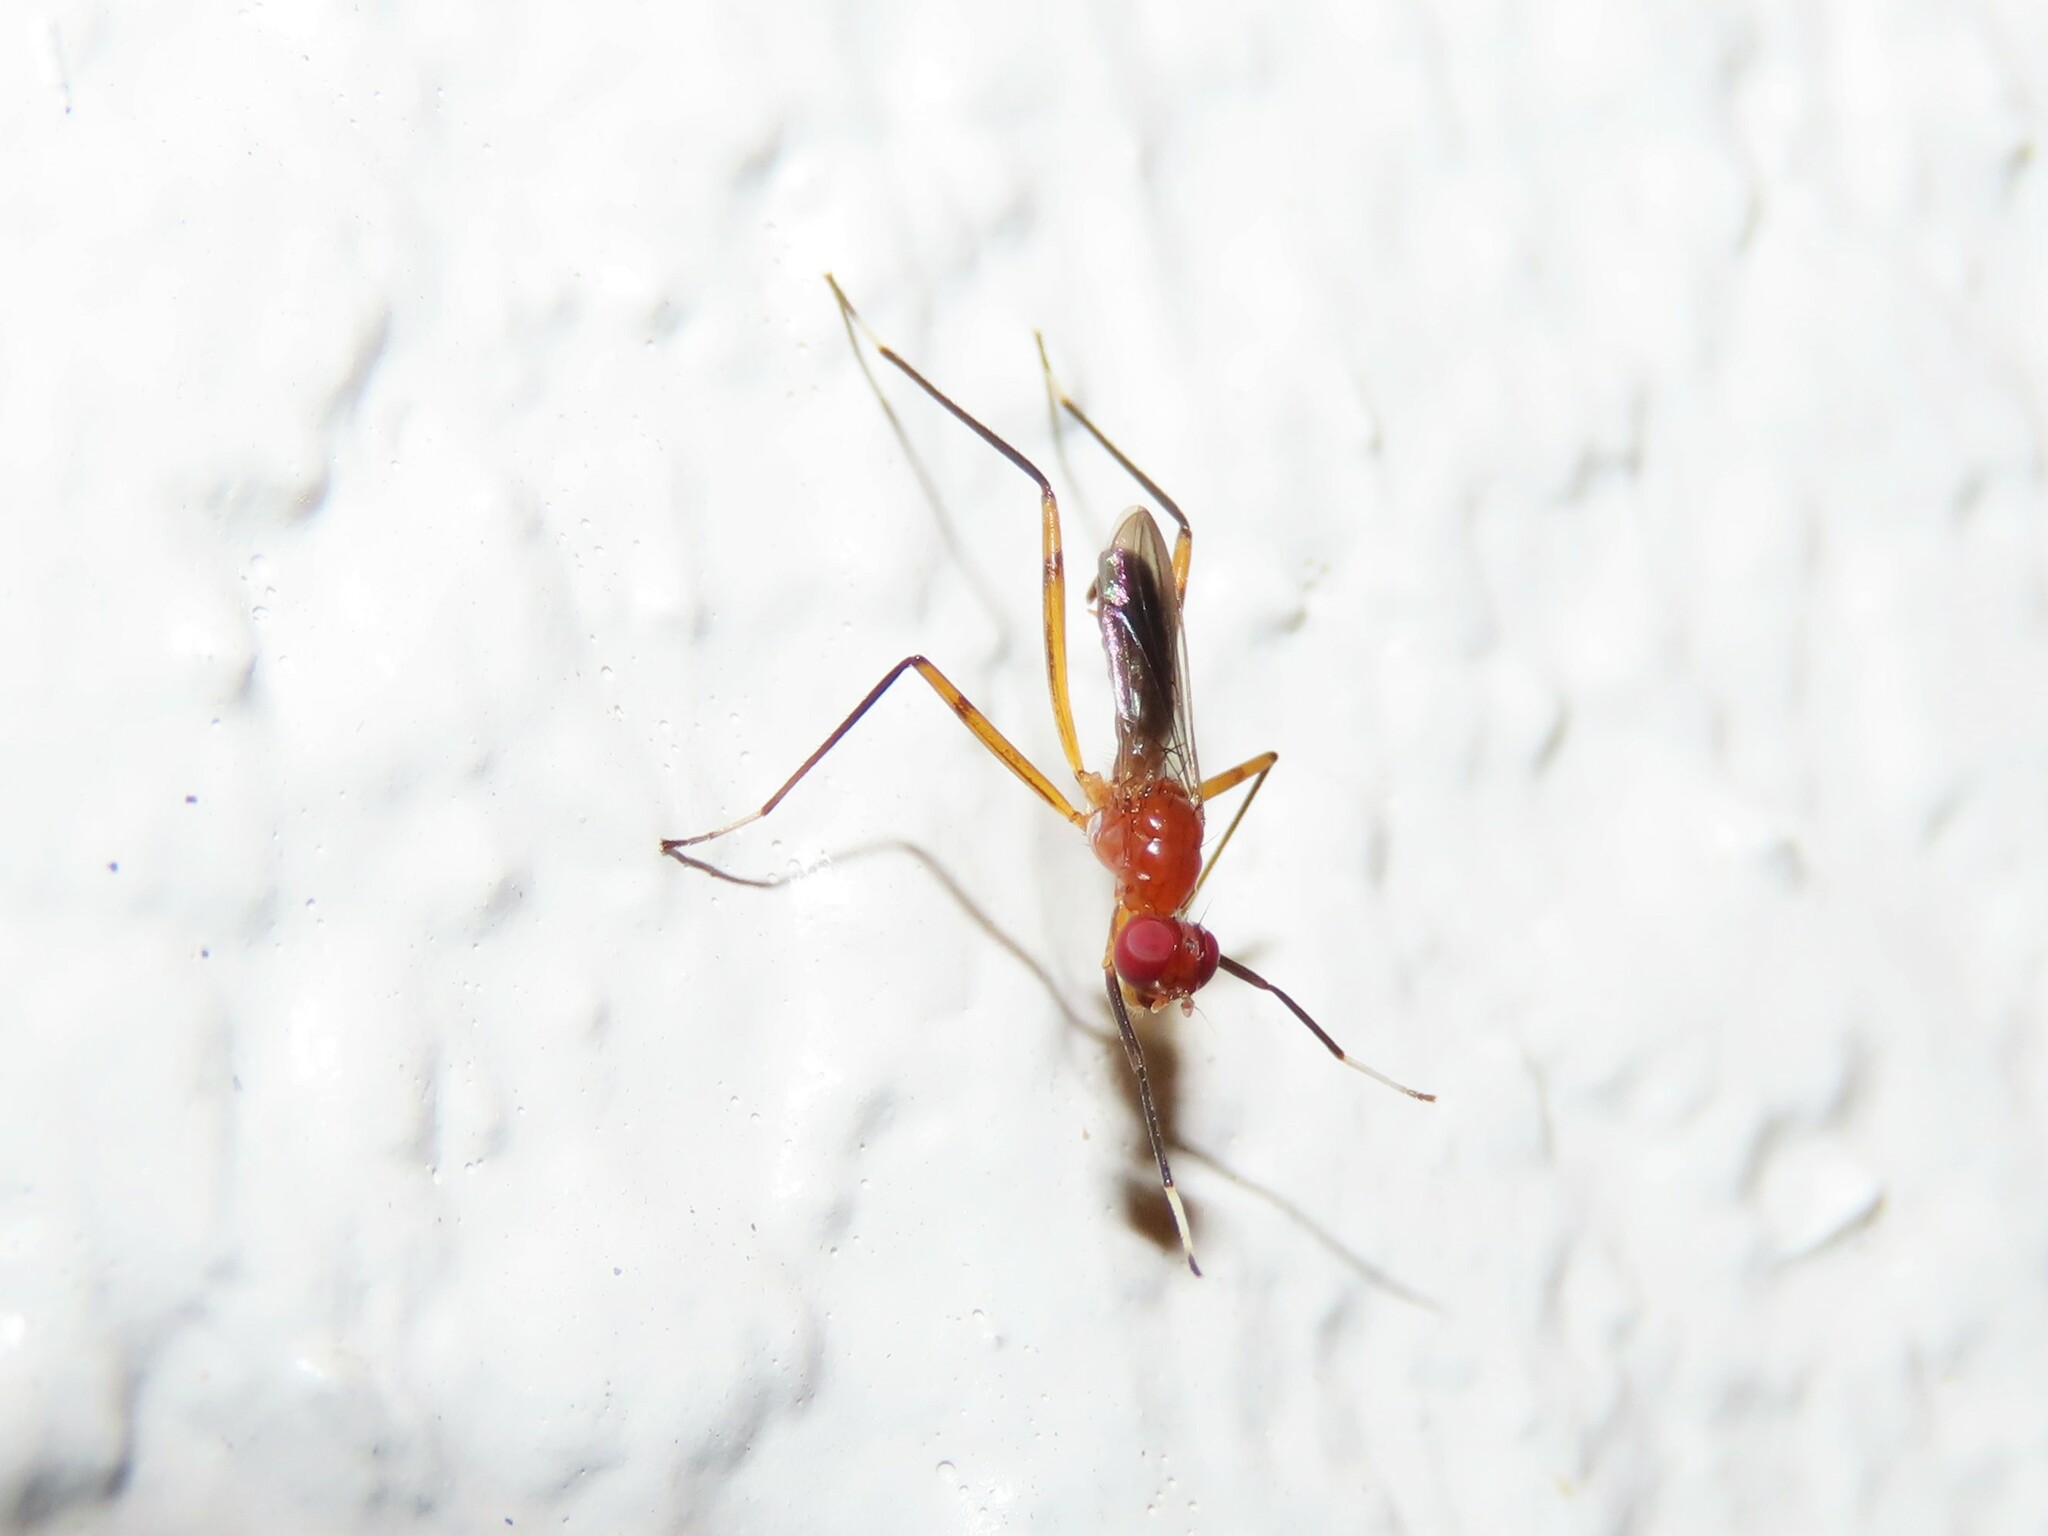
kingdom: Animalia
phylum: Arthropoda
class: Insecta
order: Diptera
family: Micropezidae
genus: Grallipeza
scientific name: Grallipeza nebulosa
